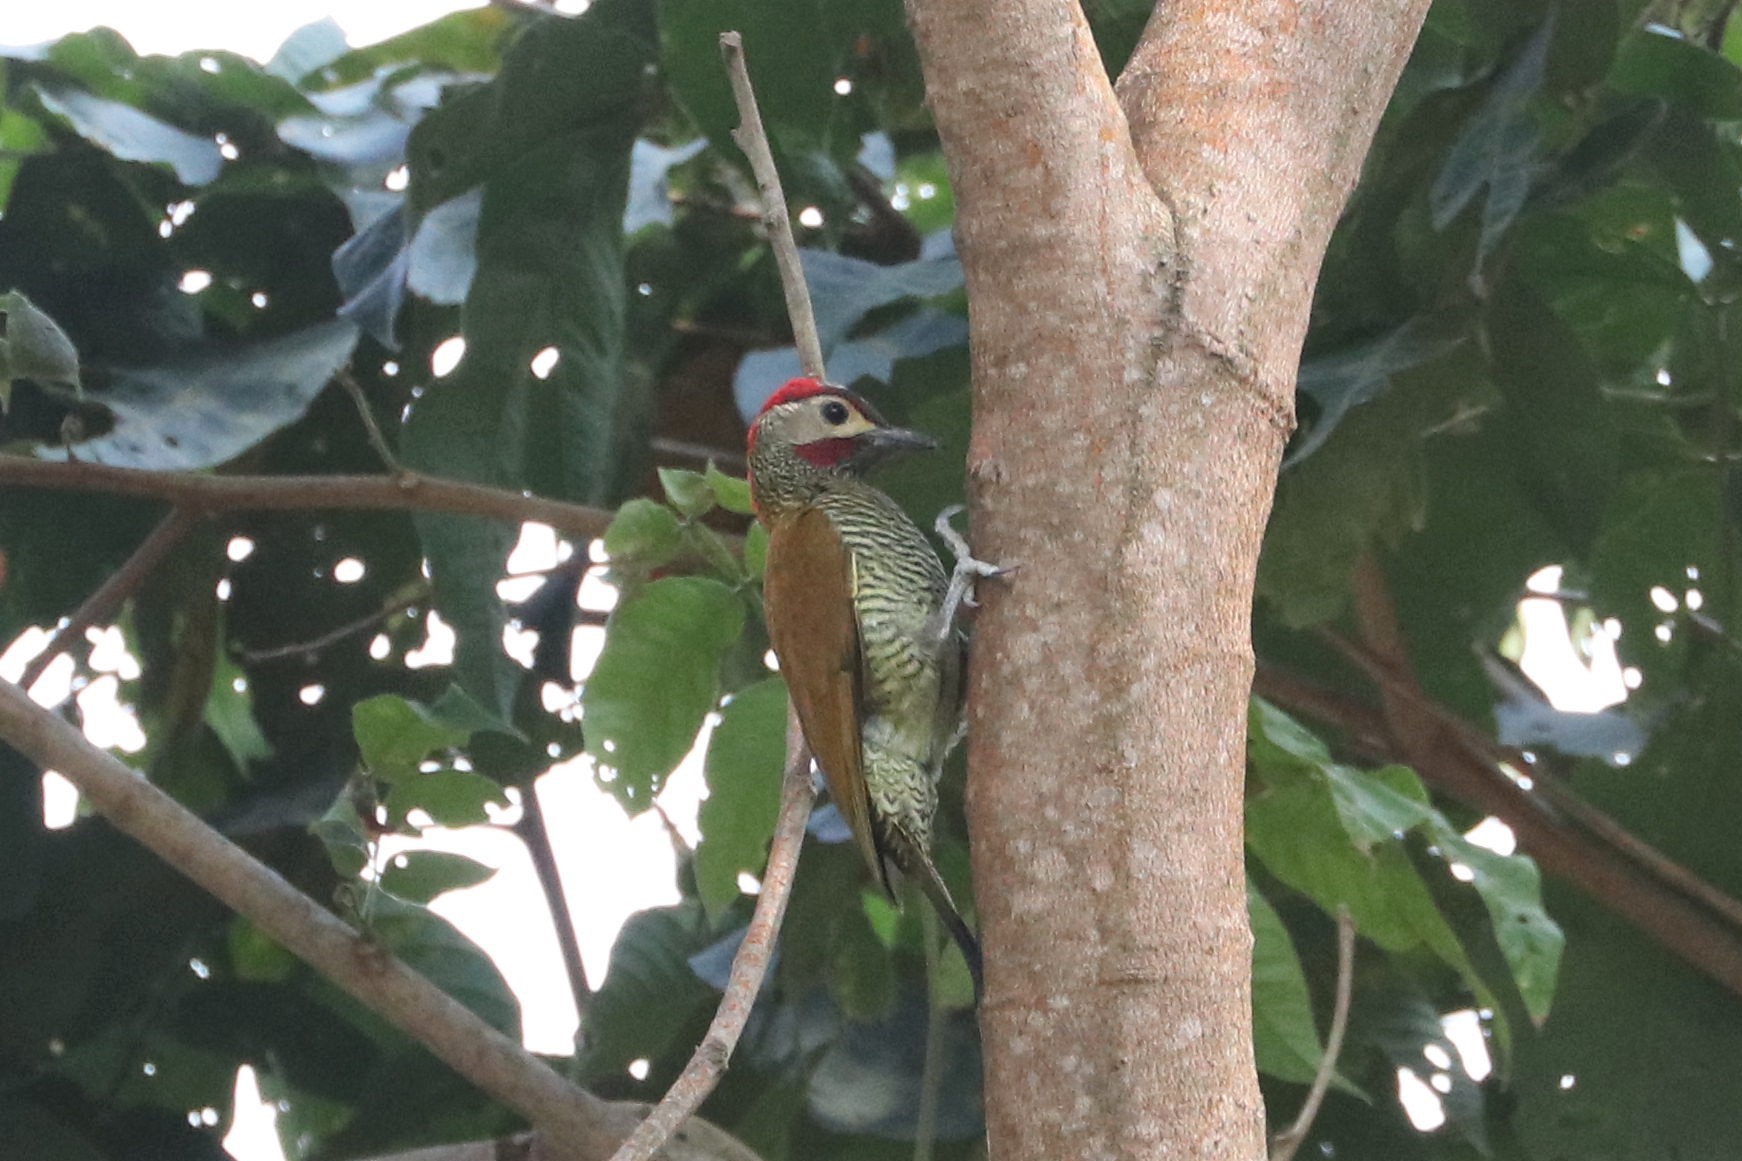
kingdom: Animalia
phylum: Chordata
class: Aves
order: Piciformes
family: Picidae
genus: Colaptes
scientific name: Colaptes rubiginosus
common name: Golden-olive woodpecker
